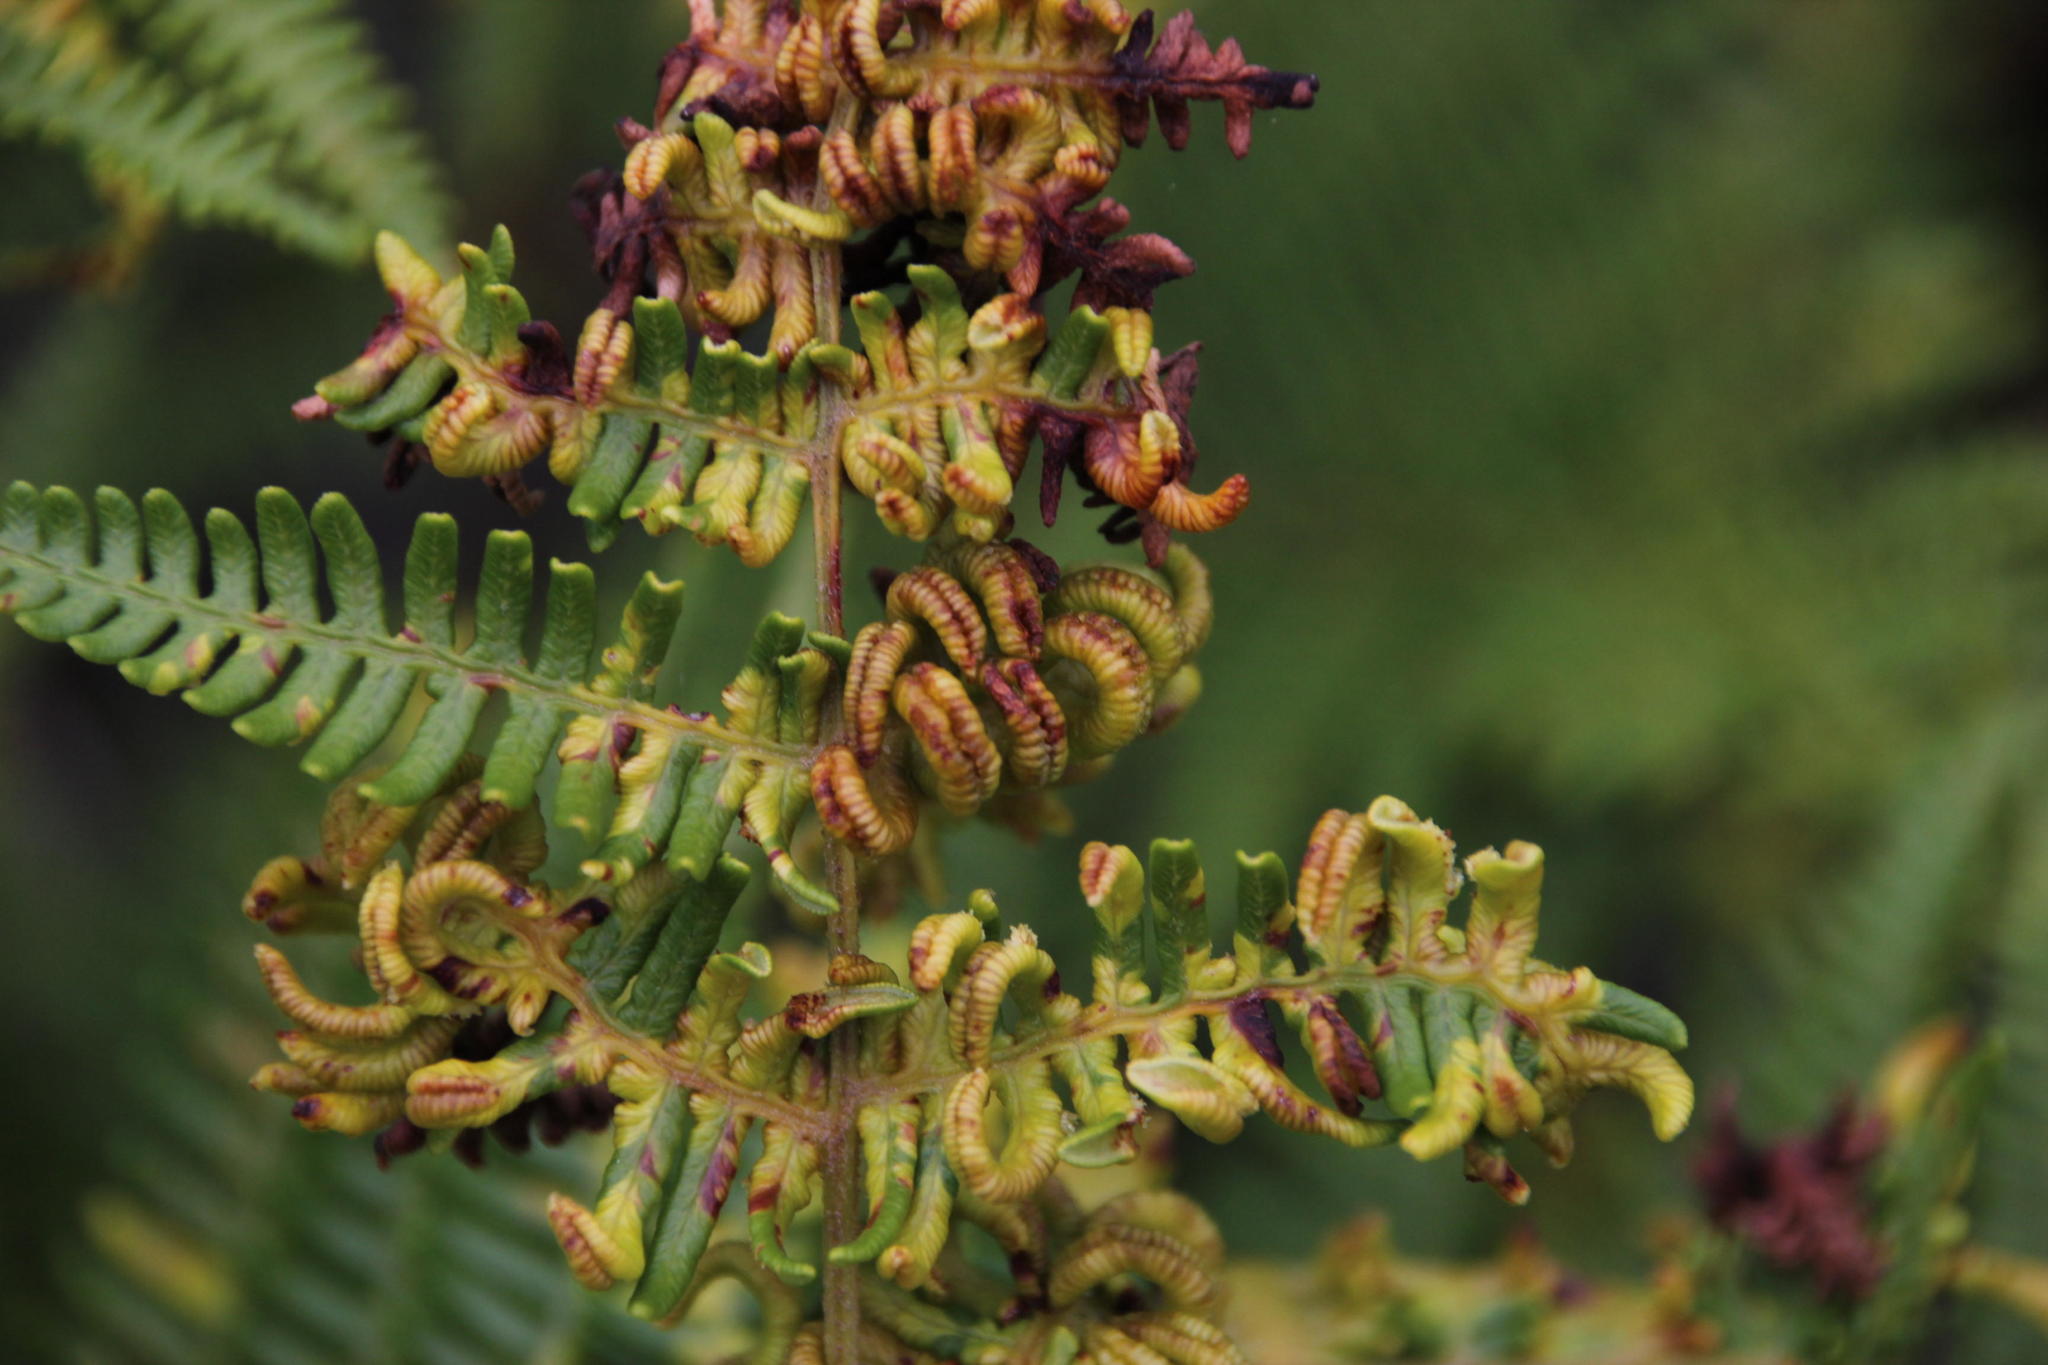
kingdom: Plantae
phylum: Tracheophyta
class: Polypodiopsida
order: Polypodiales
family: Dennstaedtiaceae
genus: Pteridium
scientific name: Pteridium aquilinum
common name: Bracken
